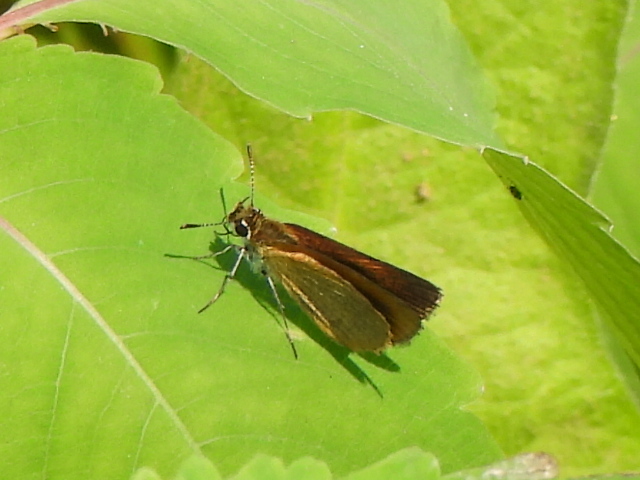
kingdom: Animalia
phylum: Arthropoda
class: Insecta
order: Lepidoptera
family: Hesperiidae
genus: Ancyloxypha
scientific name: Ancyloxypha numitor
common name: Least skipper
